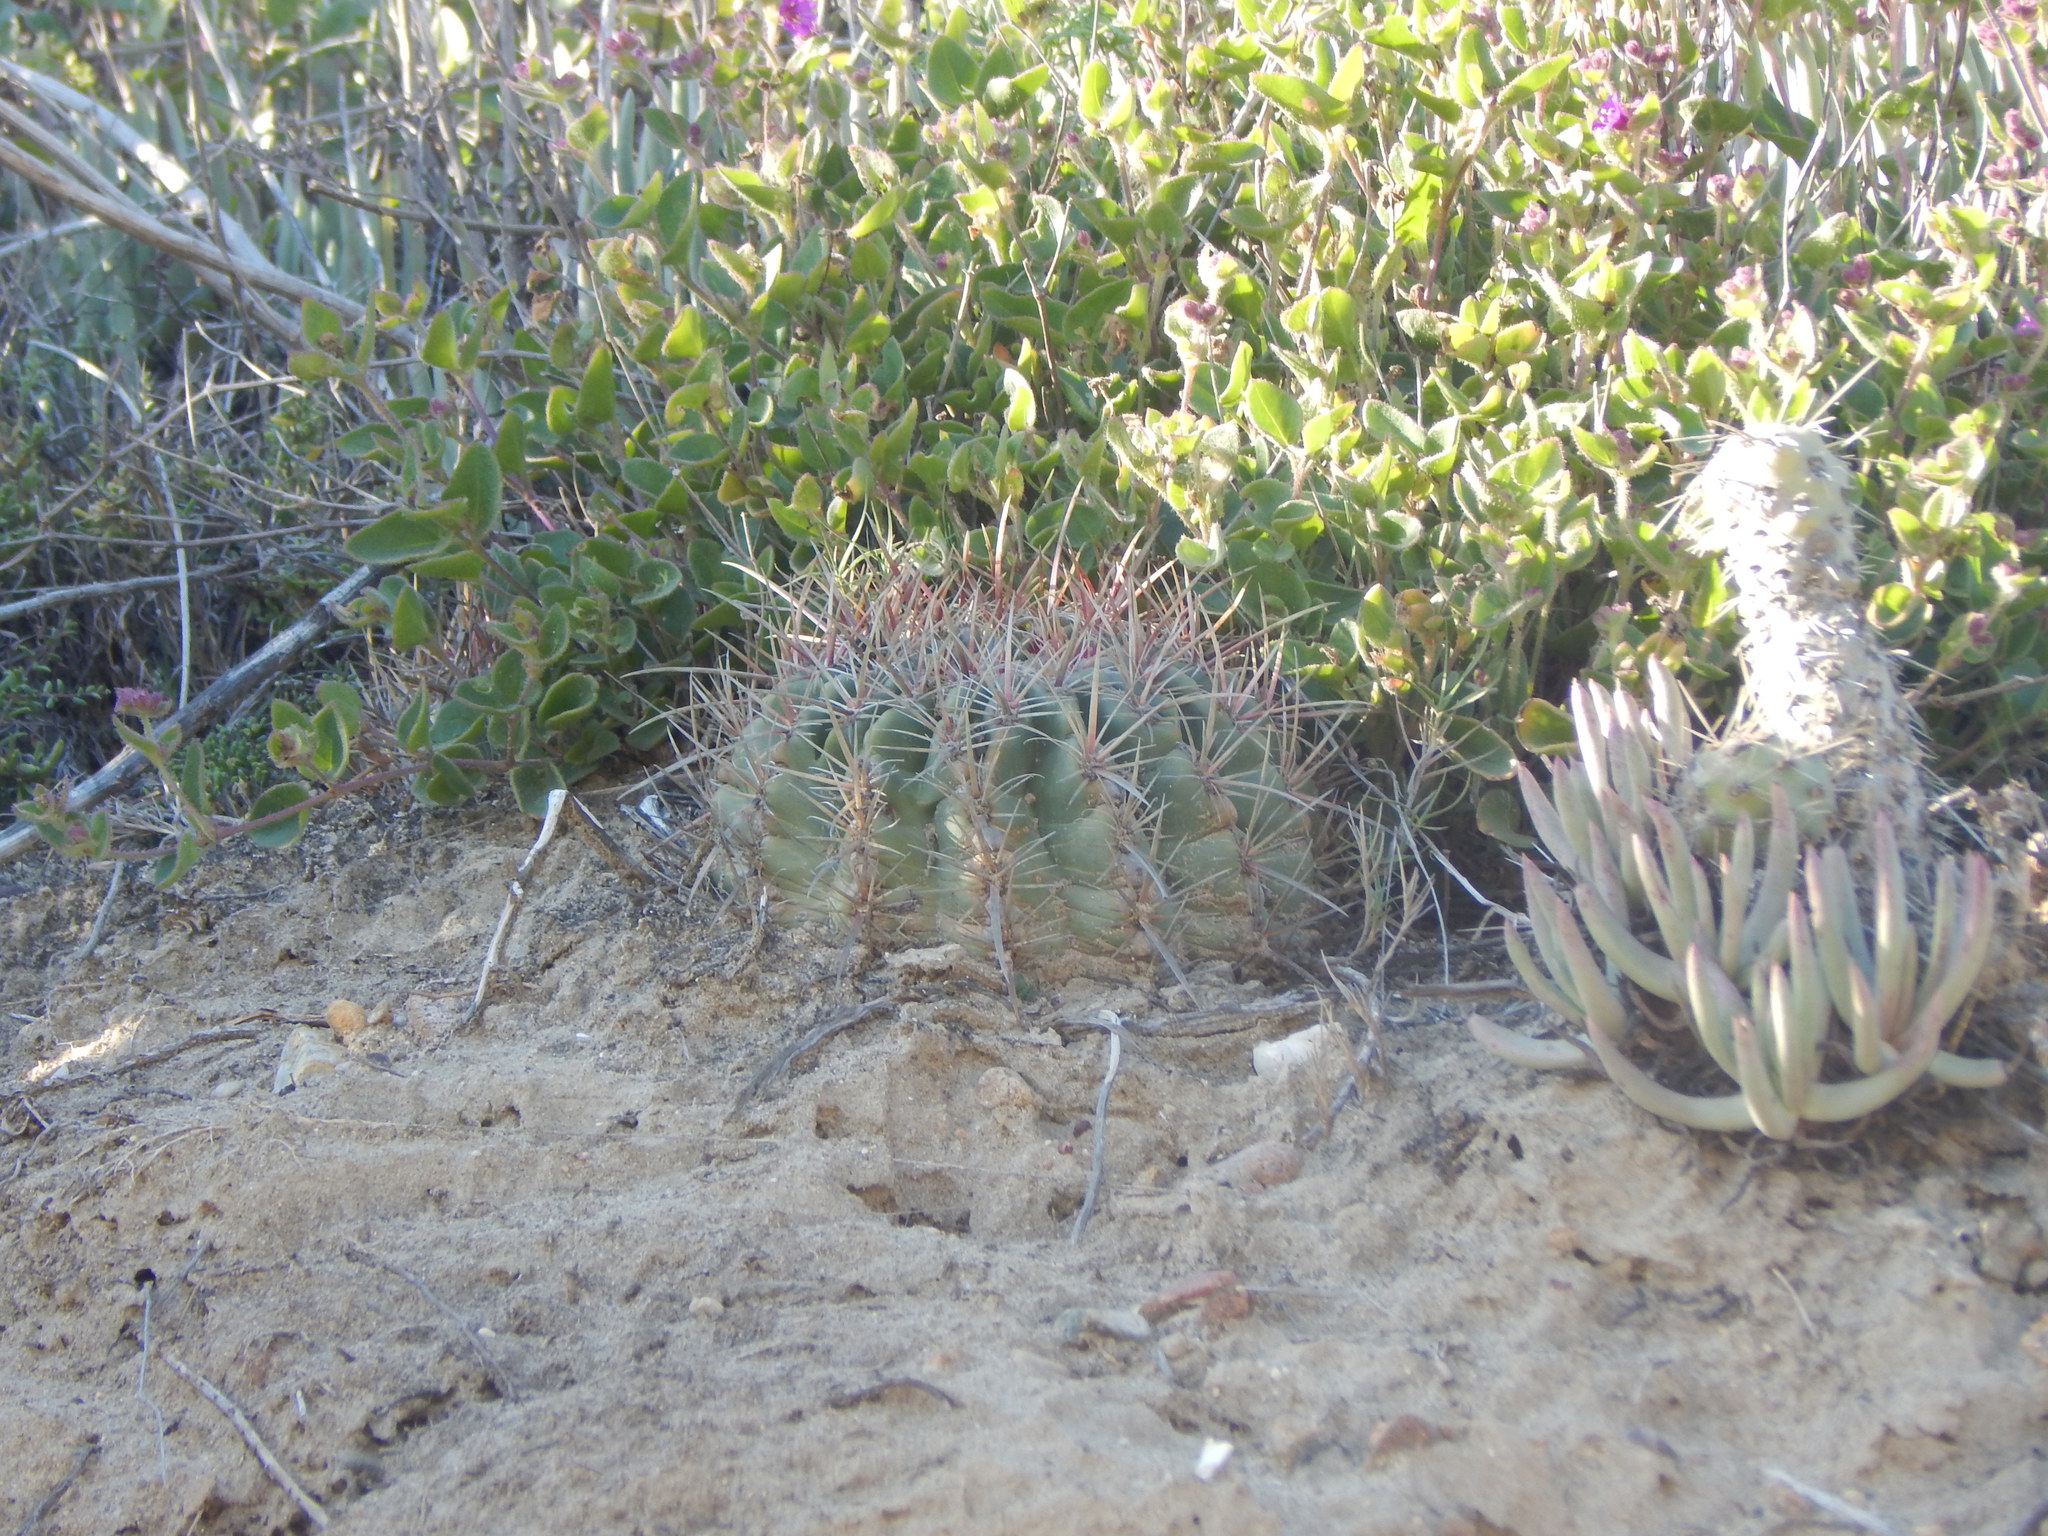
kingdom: Plantae
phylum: Tracheophyta
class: Magnoliopsida
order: Caryophyllales
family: Cactaceae
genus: Ferocactus
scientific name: Ferocactus viridescens
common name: San diego barrel cactus
